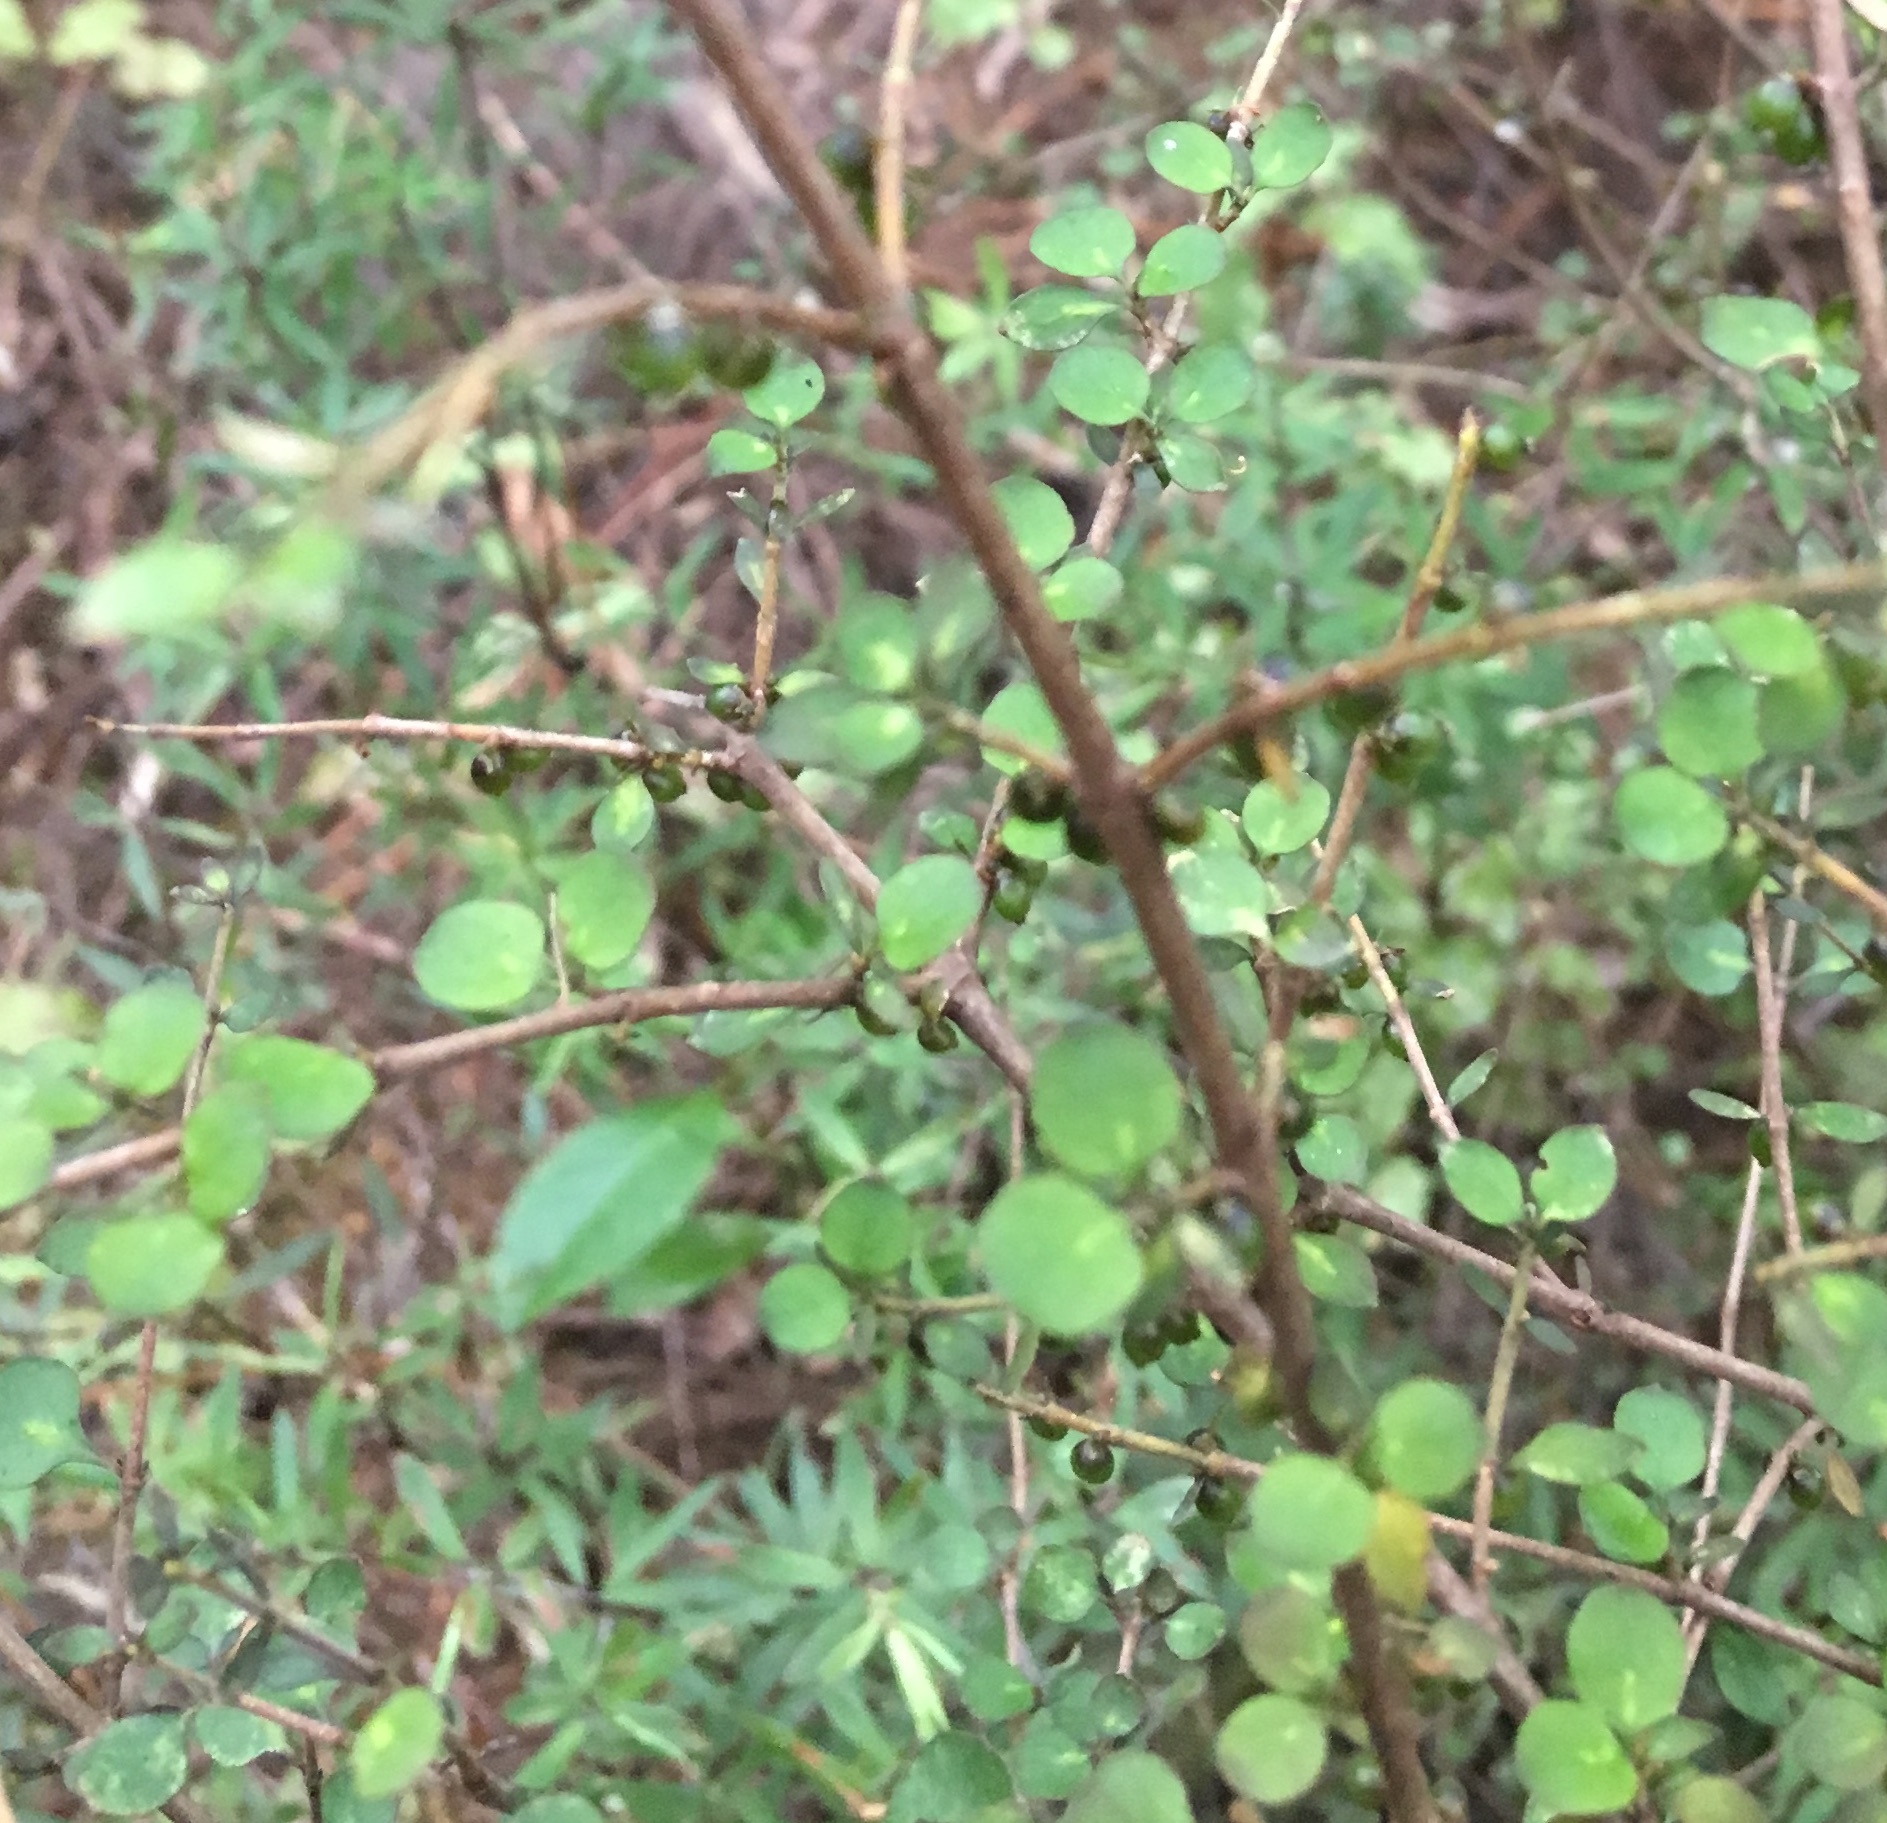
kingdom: Plantae
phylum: Tracheophyta
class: Magnoliopsida
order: Gentianales
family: Rubiaceae
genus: Coprosma
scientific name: Coprosma rhamnoides
